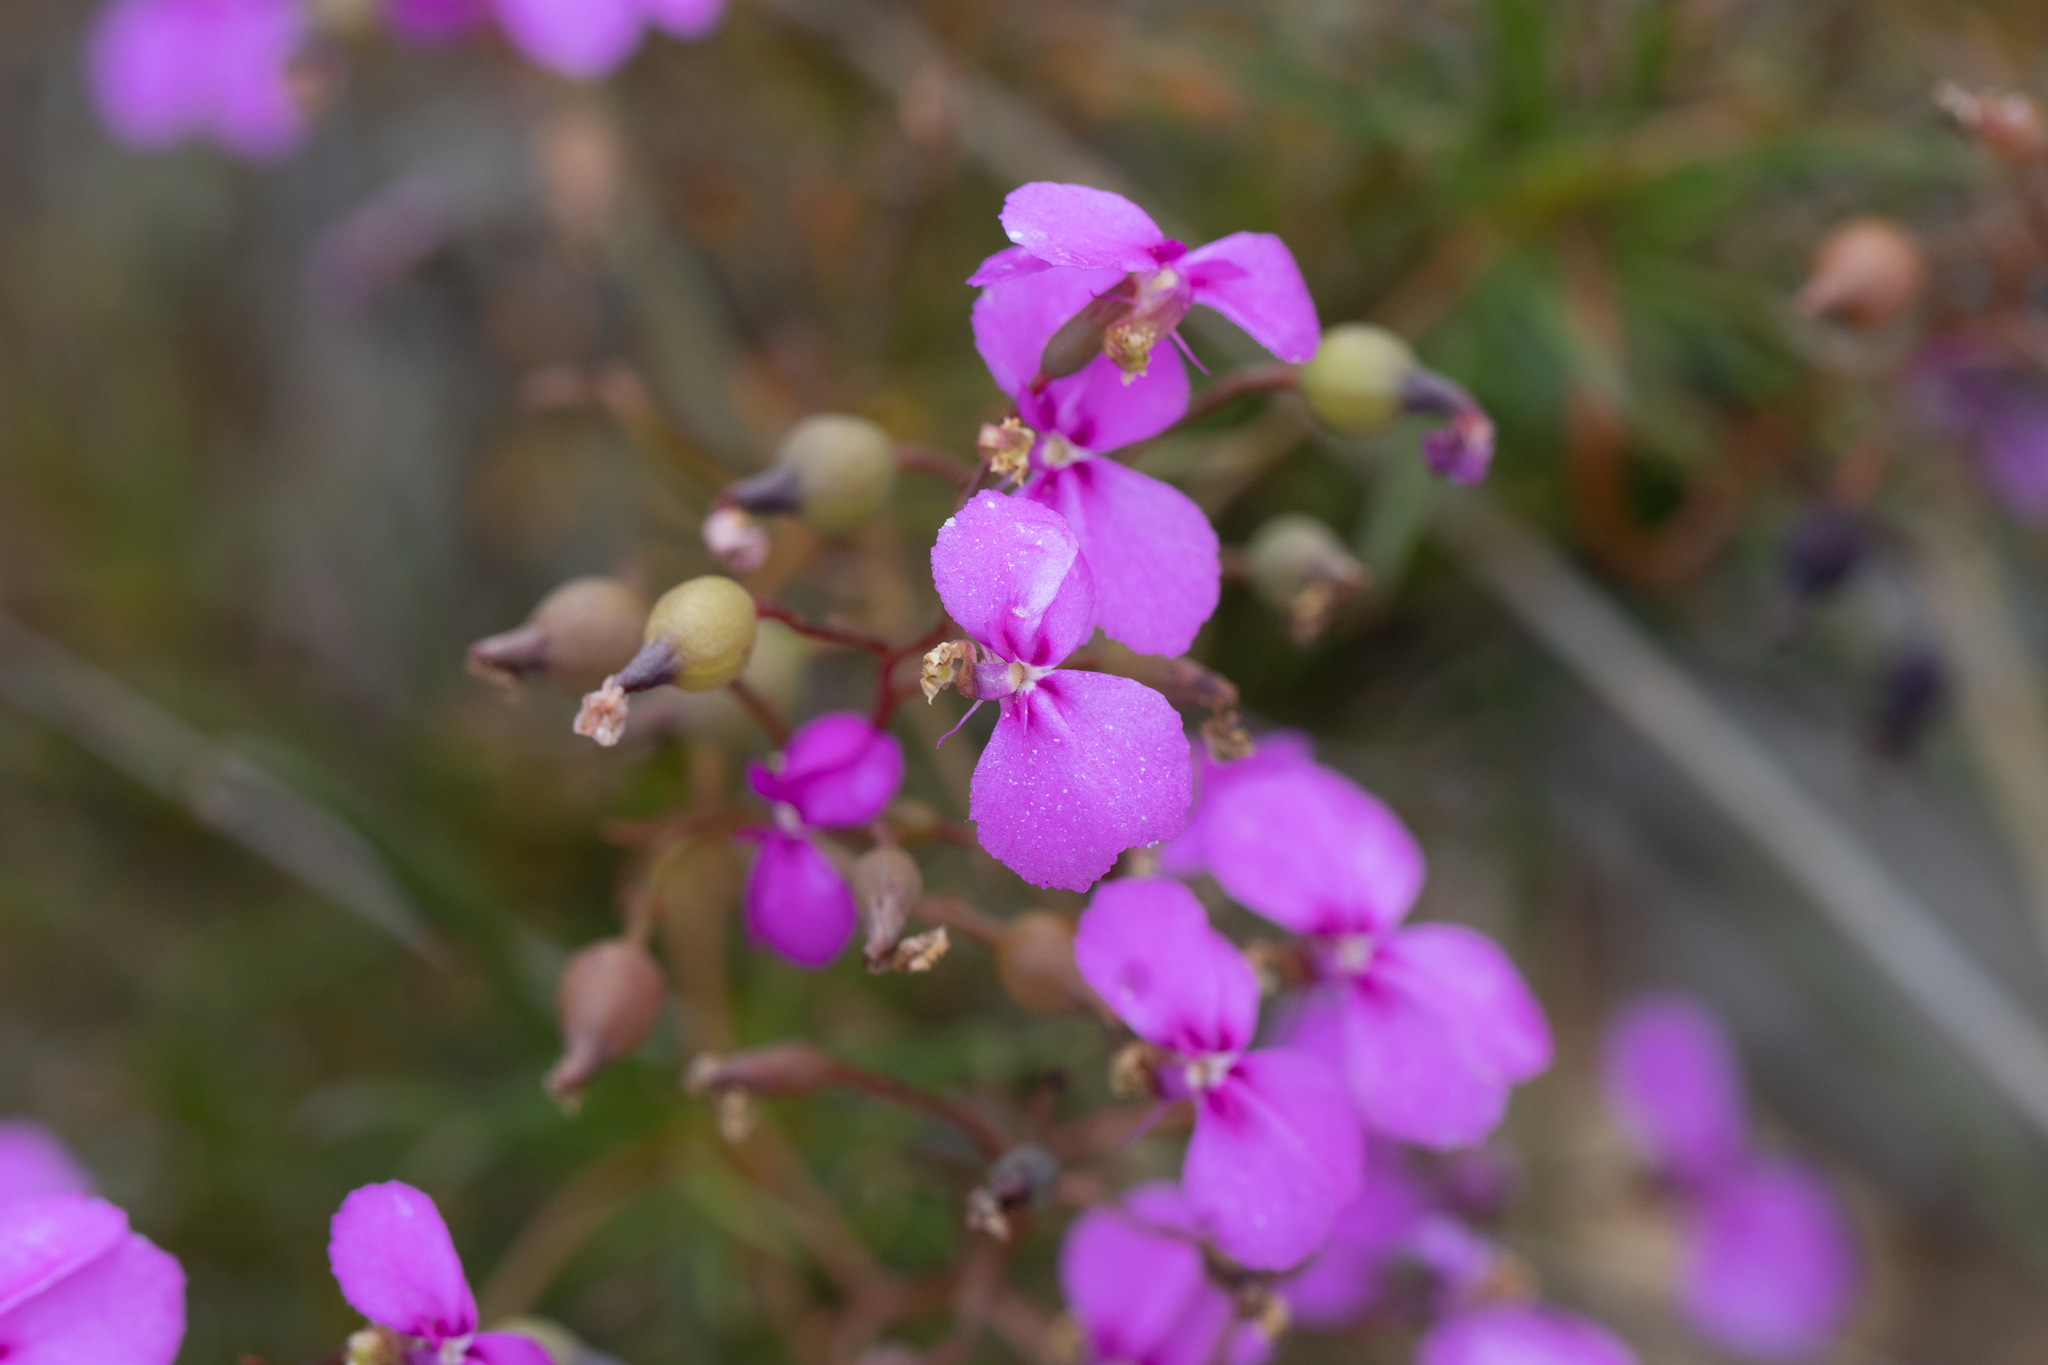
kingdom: Plantae
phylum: Tracheophyta
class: Magnoliopsida
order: Asterales
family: Stylidiaceae
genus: Stylidium
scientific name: Stylidium scandens
